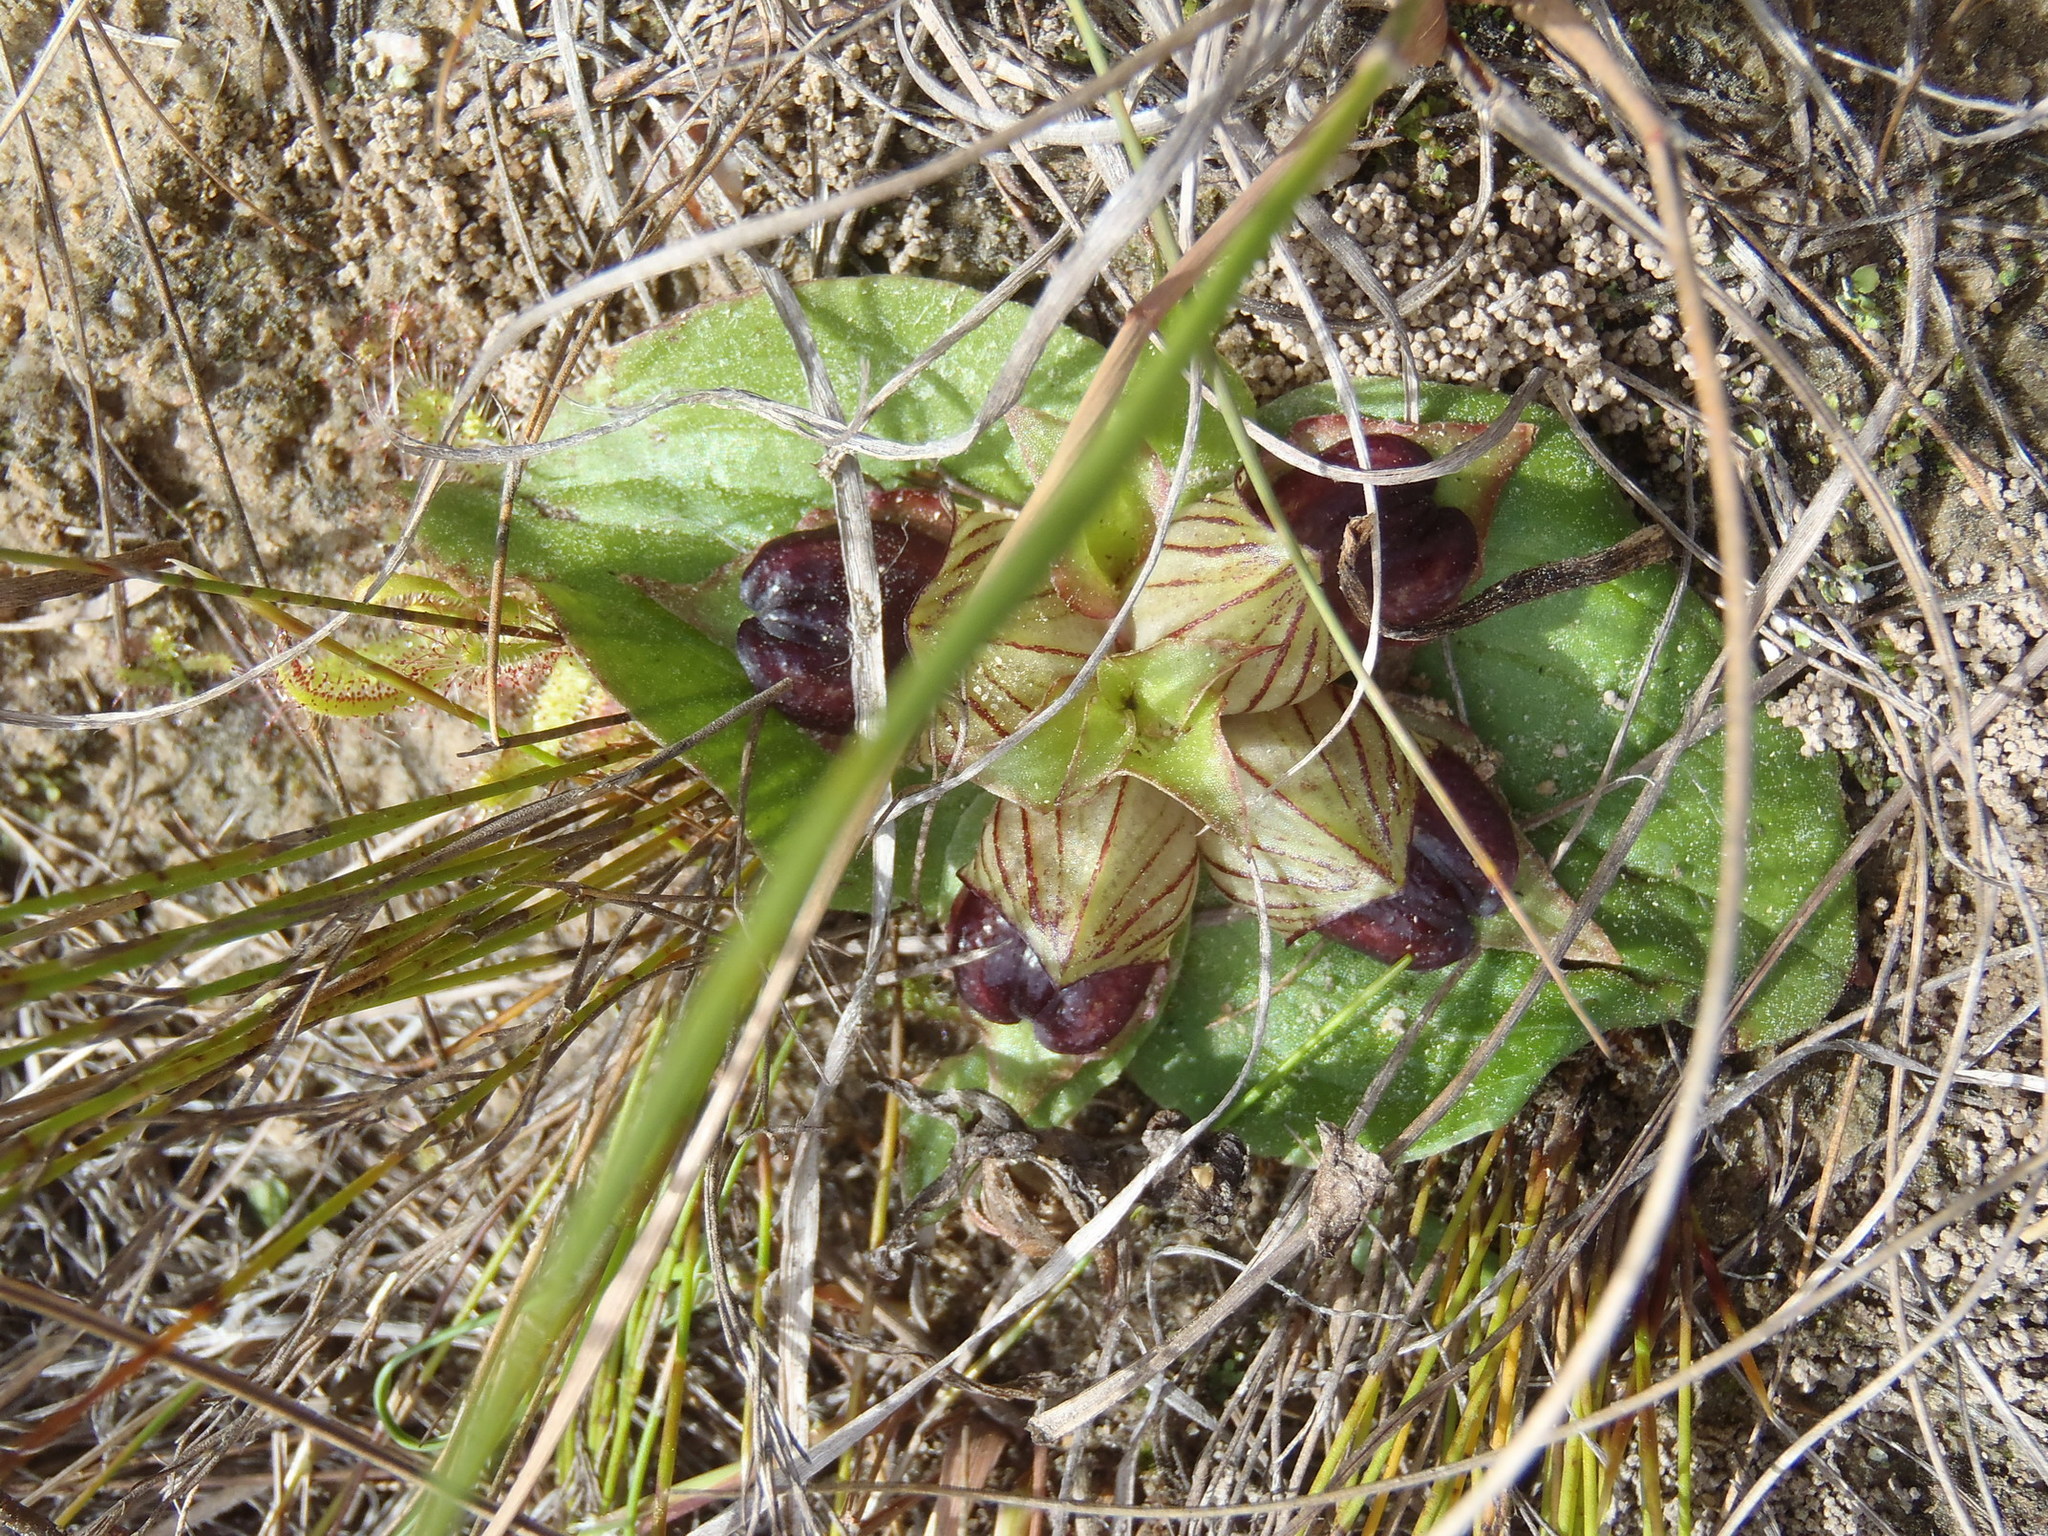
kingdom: Plantae
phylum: Tracheophyta
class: Liliopsida
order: Asparagales
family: Orchidaceae
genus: Satyrium
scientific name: Satyrium pumilum
